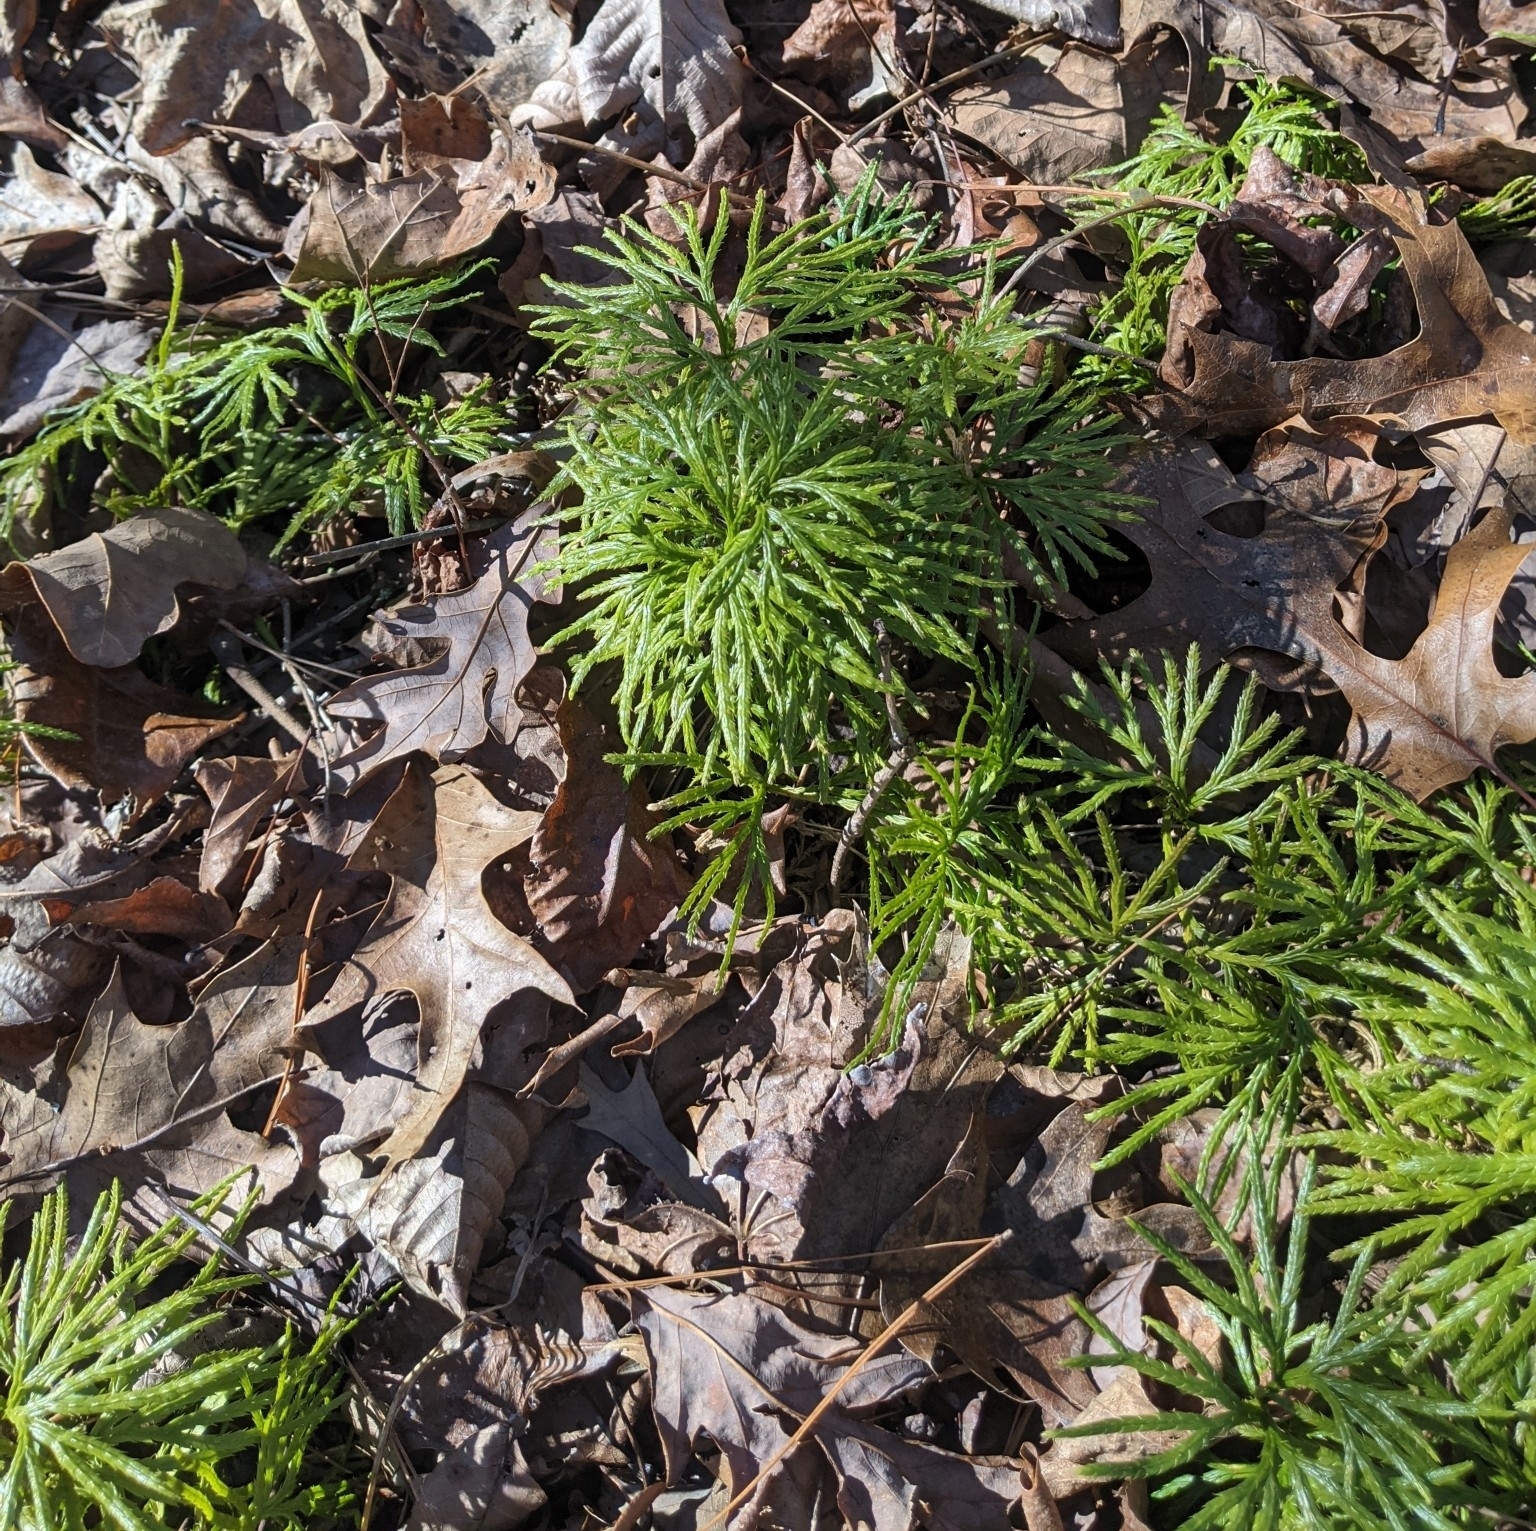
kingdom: Plantae
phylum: Tracheophyta
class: Lycopodiopsida
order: Lycopodiales
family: Lycopodiaceae
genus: Diphasiastrum
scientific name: Diphasiastrum digitatum
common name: Southern running-pine
